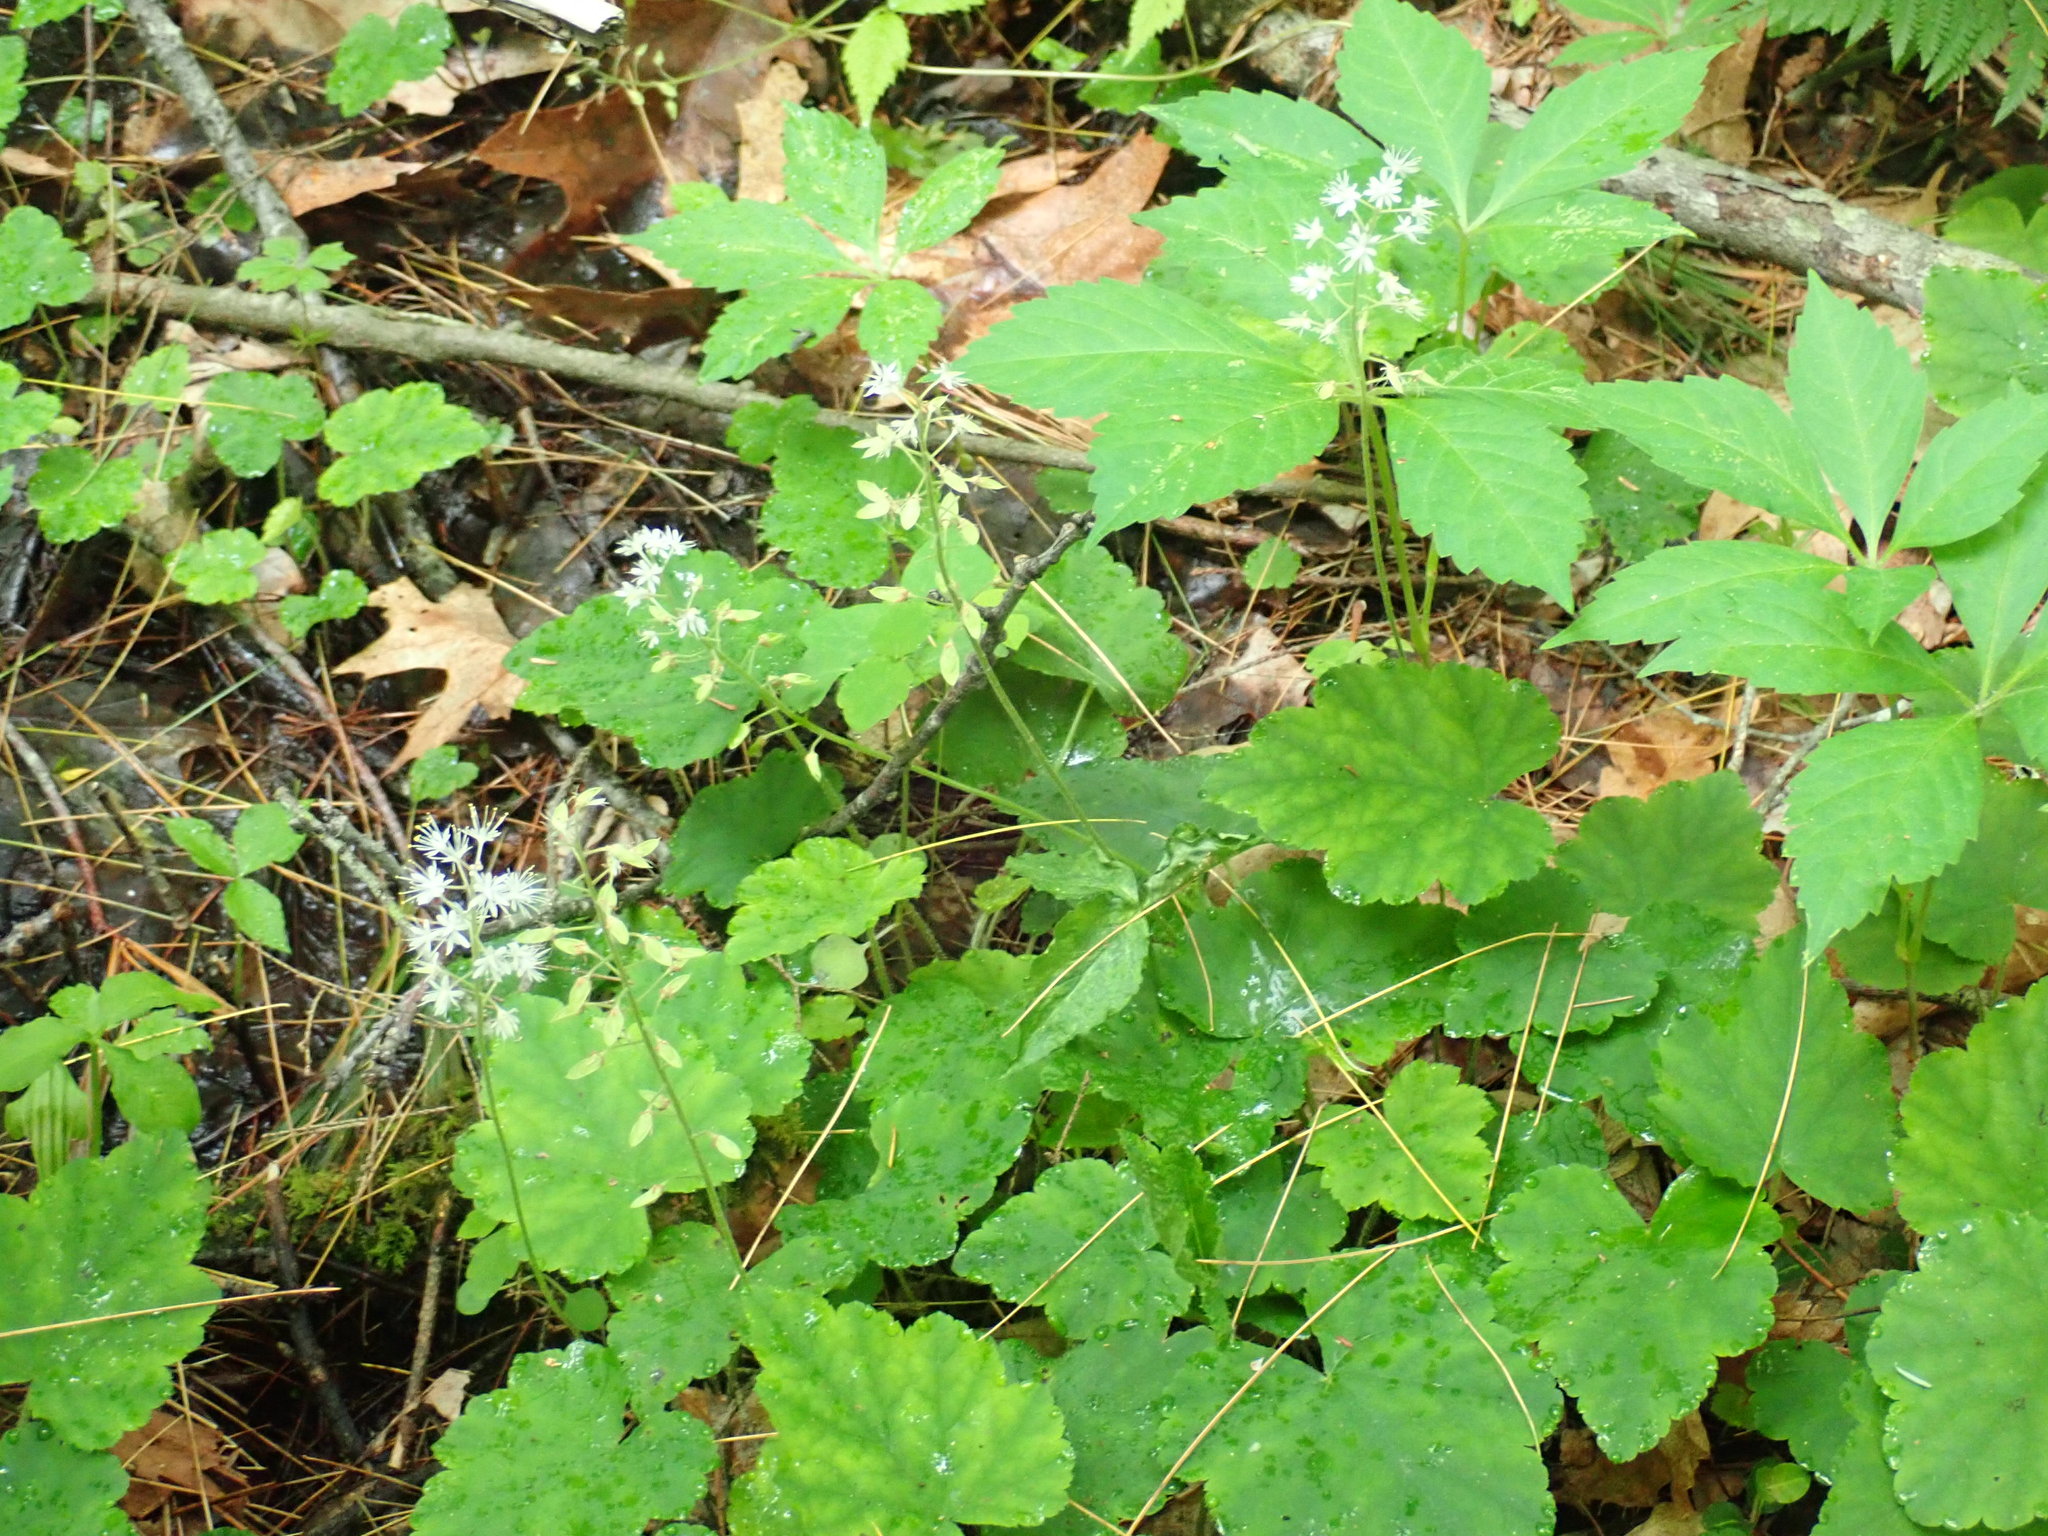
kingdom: Plantae
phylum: Tracheophyta
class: Magnoliopsida
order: Saxifragales
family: Saxifragaceae
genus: Tiarella
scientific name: Tiarella stolonifera
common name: Stoloniferous foamflower
